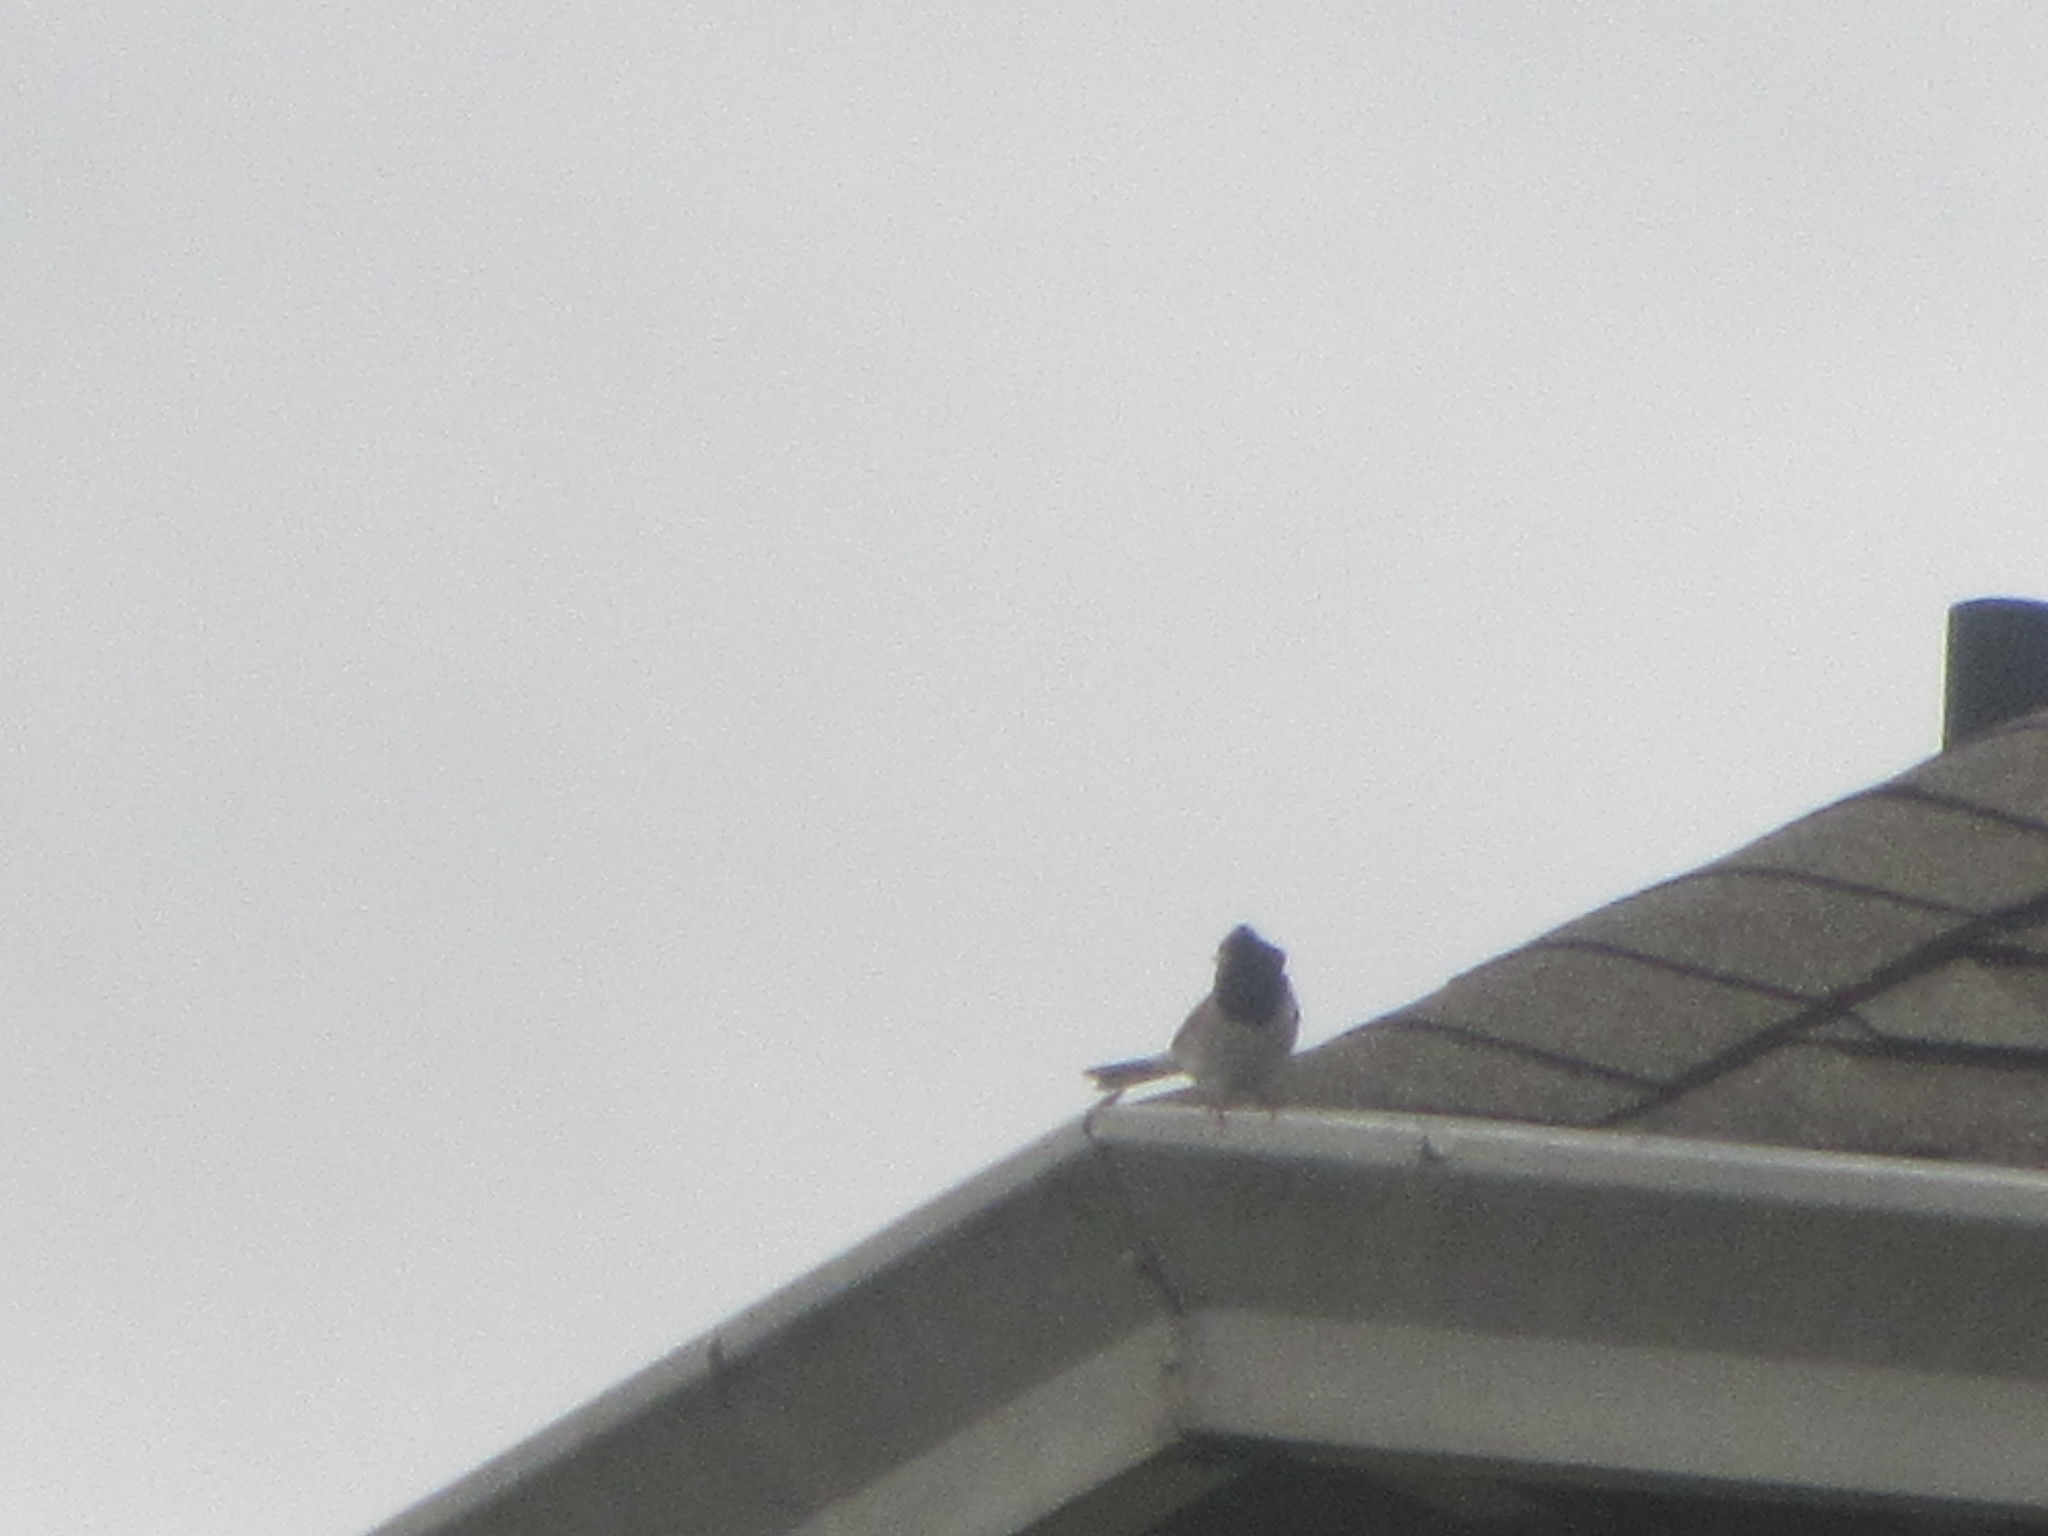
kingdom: Animalia
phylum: Chordata
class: Aves
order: Passeriformes
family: Passerellidae
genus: Junco
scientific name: Junco hyemalis
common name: Dark-eyed junco
